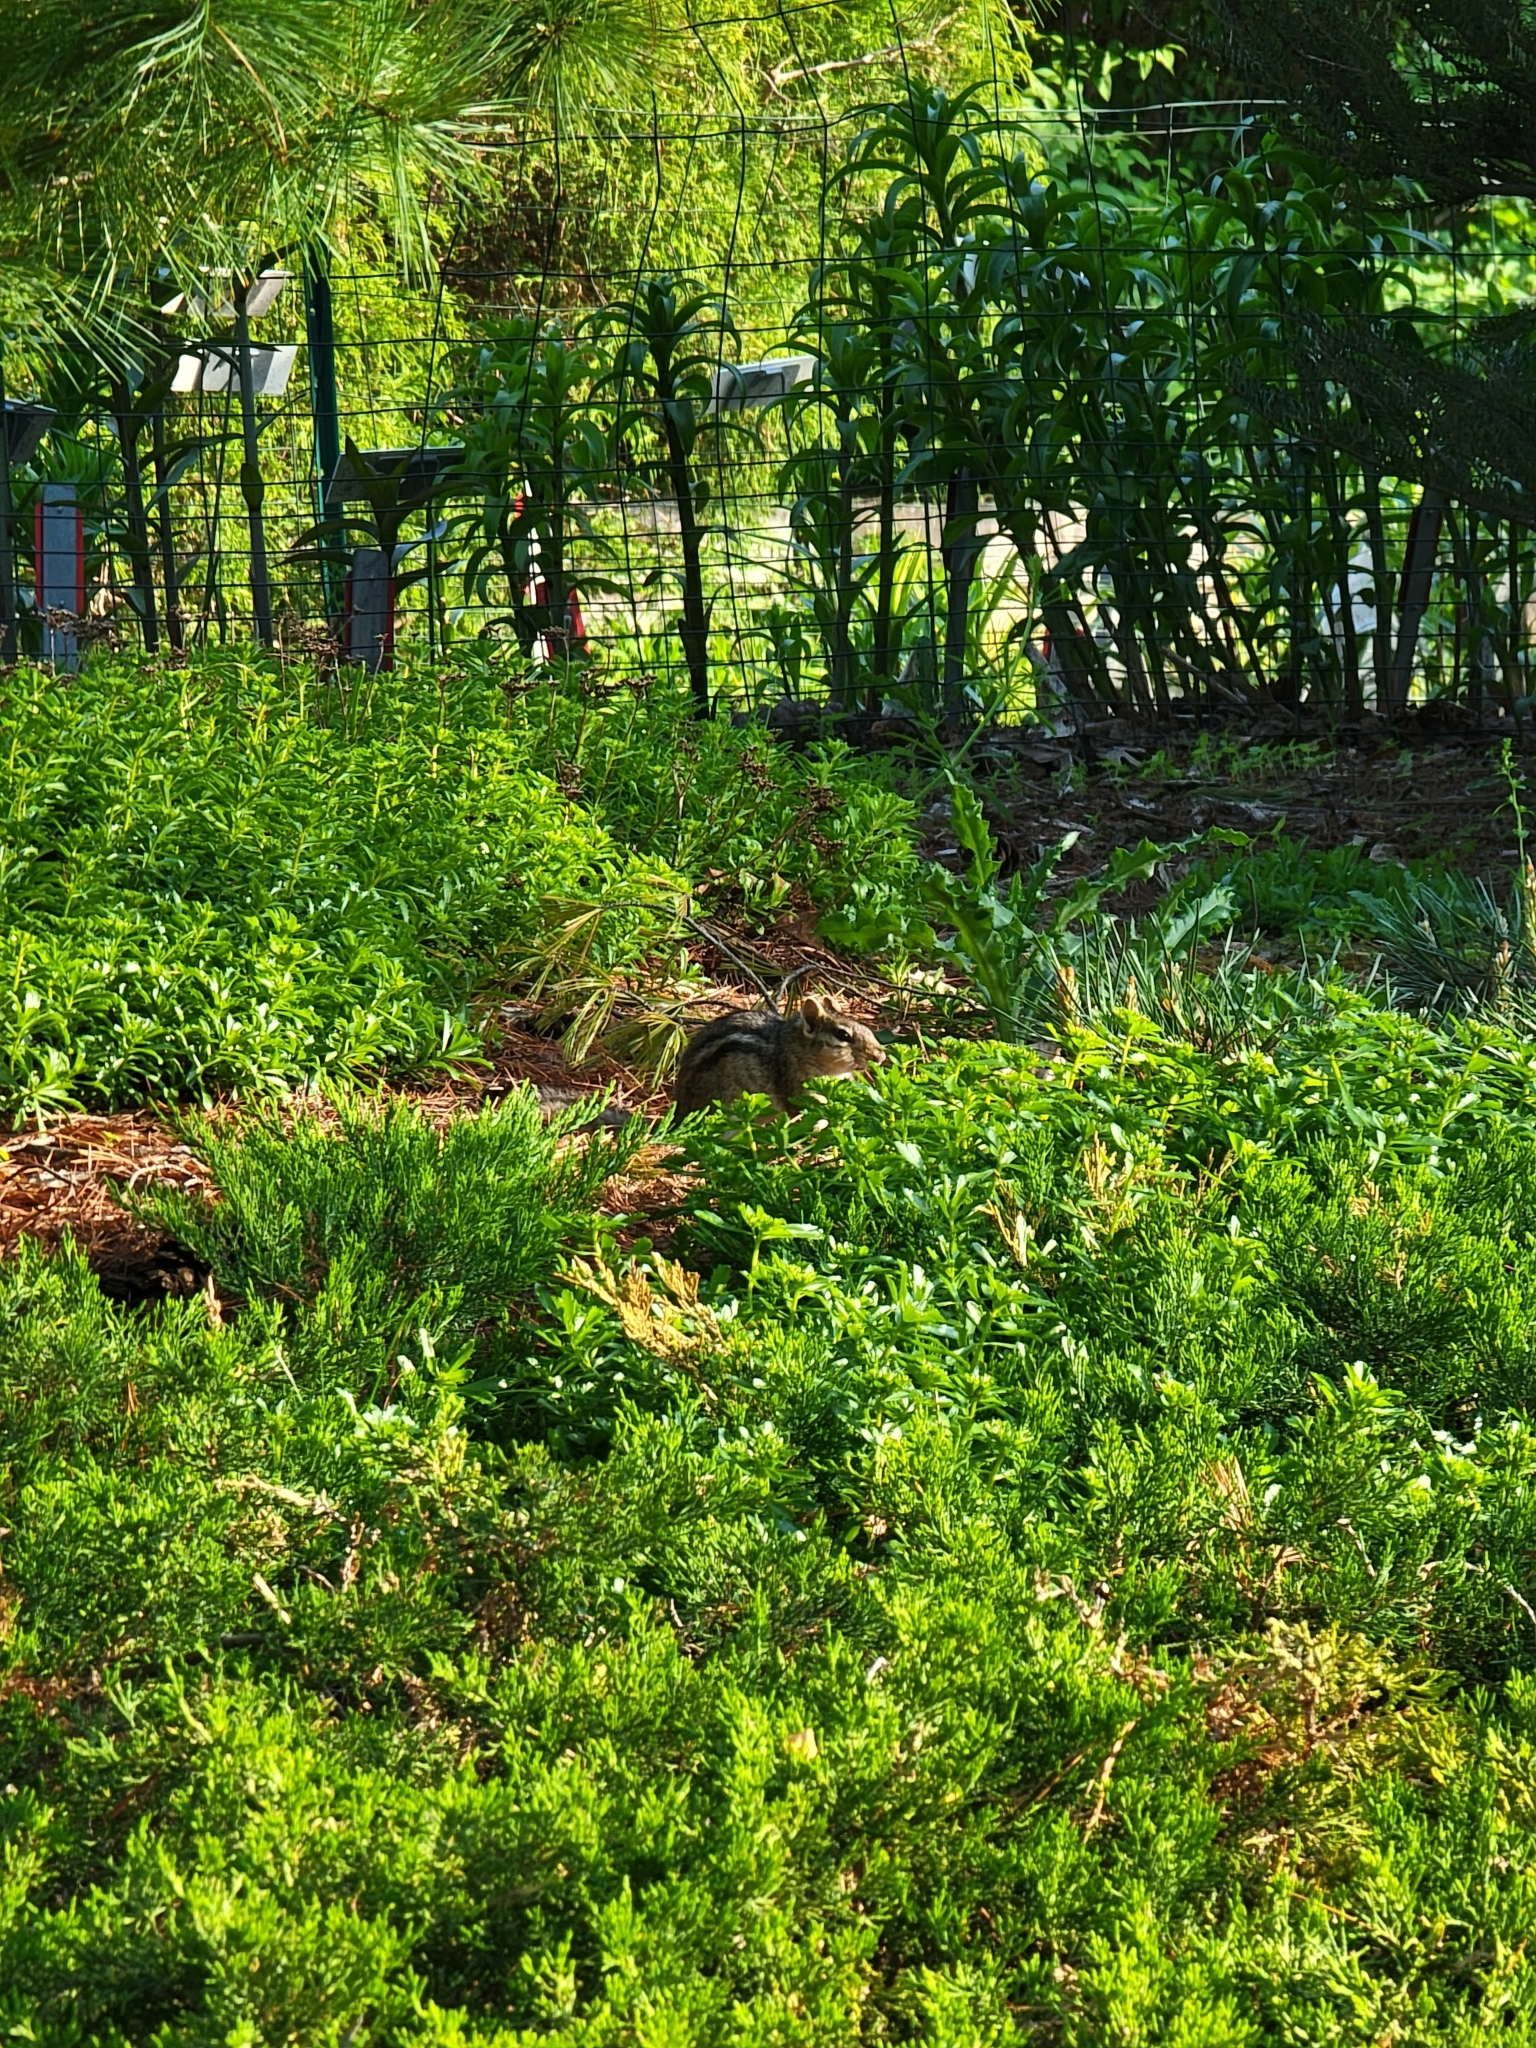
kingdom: Animalia
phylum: Chordata
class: Mammalia
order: Rodentia
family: Sciuridae
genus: Tamias
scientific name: Tamias striatus
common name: Eastern chipmunk
